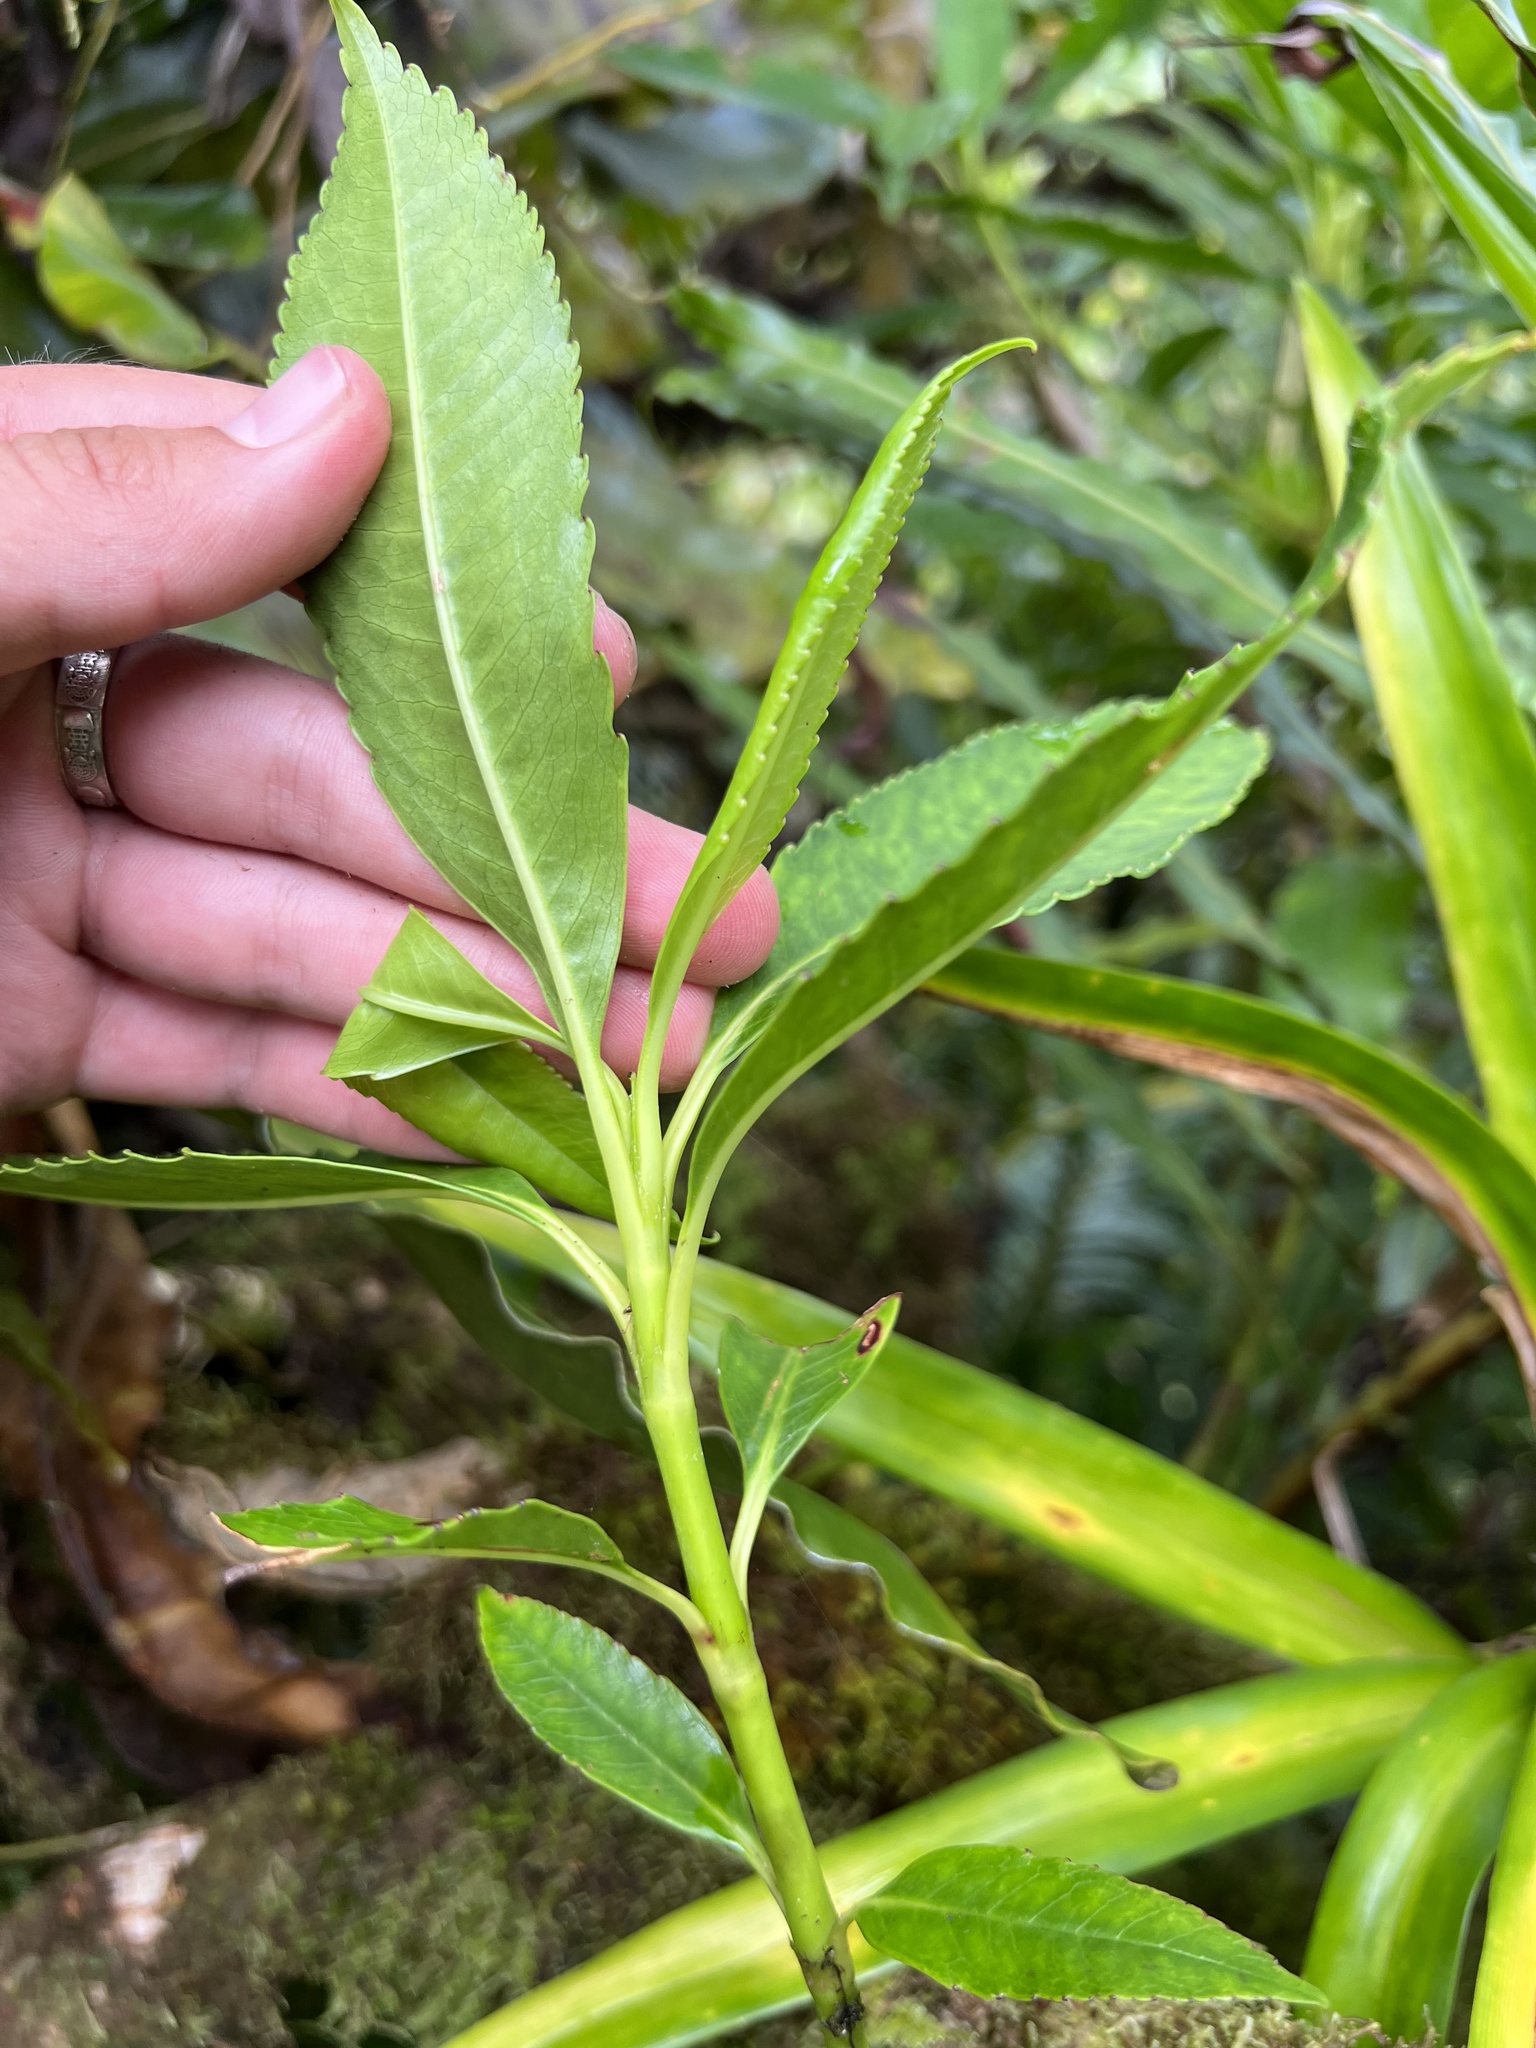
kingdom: Plantae
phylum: Tracheophyta
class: Magnoliopsida
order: Chloranthales
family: Chloranthaceae
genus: Ascarina
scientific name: Ascarina diffusa
